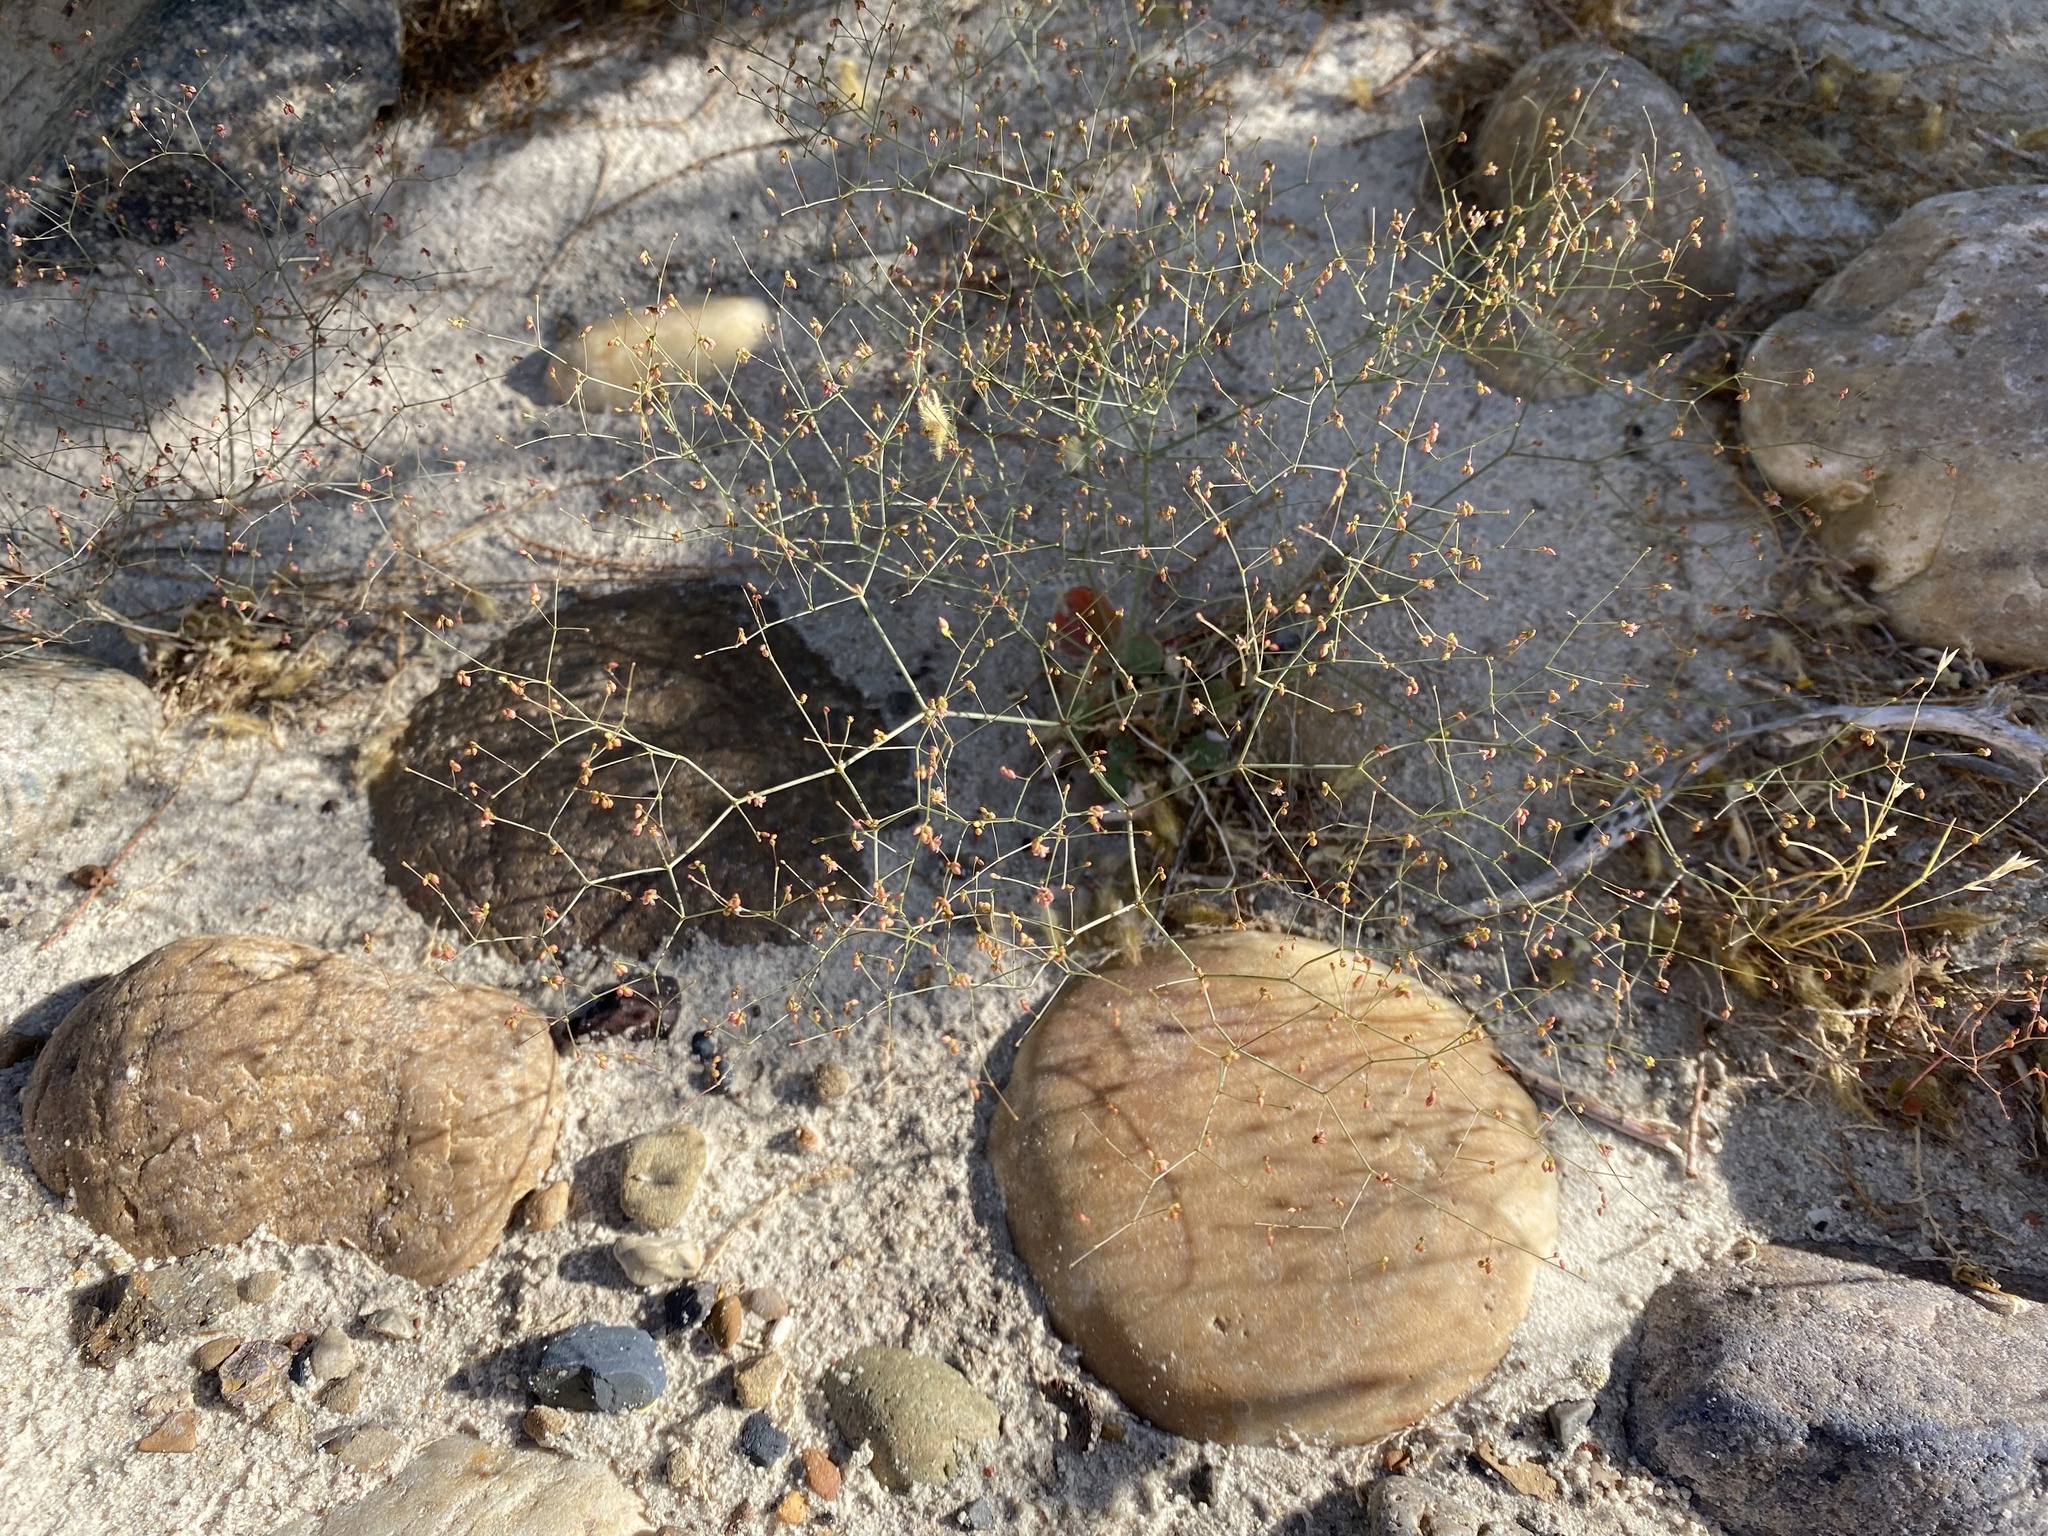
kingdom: Plantae
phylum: Tracheophyta
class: Magnoliopsida
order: Caryophyllales
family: Polygonaceae
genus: Eriogonum
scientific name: Eriogonum wetherillii
